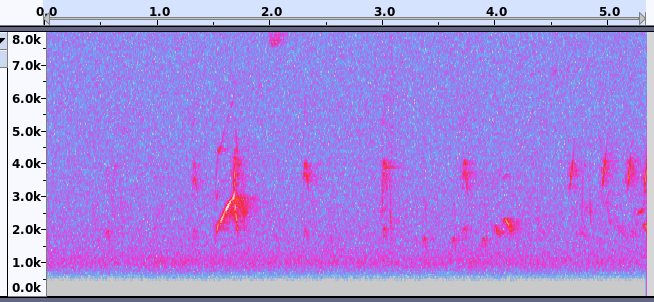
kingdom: Animalia
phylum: Chordata
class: Aves
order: Passeriformes
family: Tyrannidae
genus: Myiarchus
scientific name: Myiarchus crinitus
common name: Great crested flycatcher
